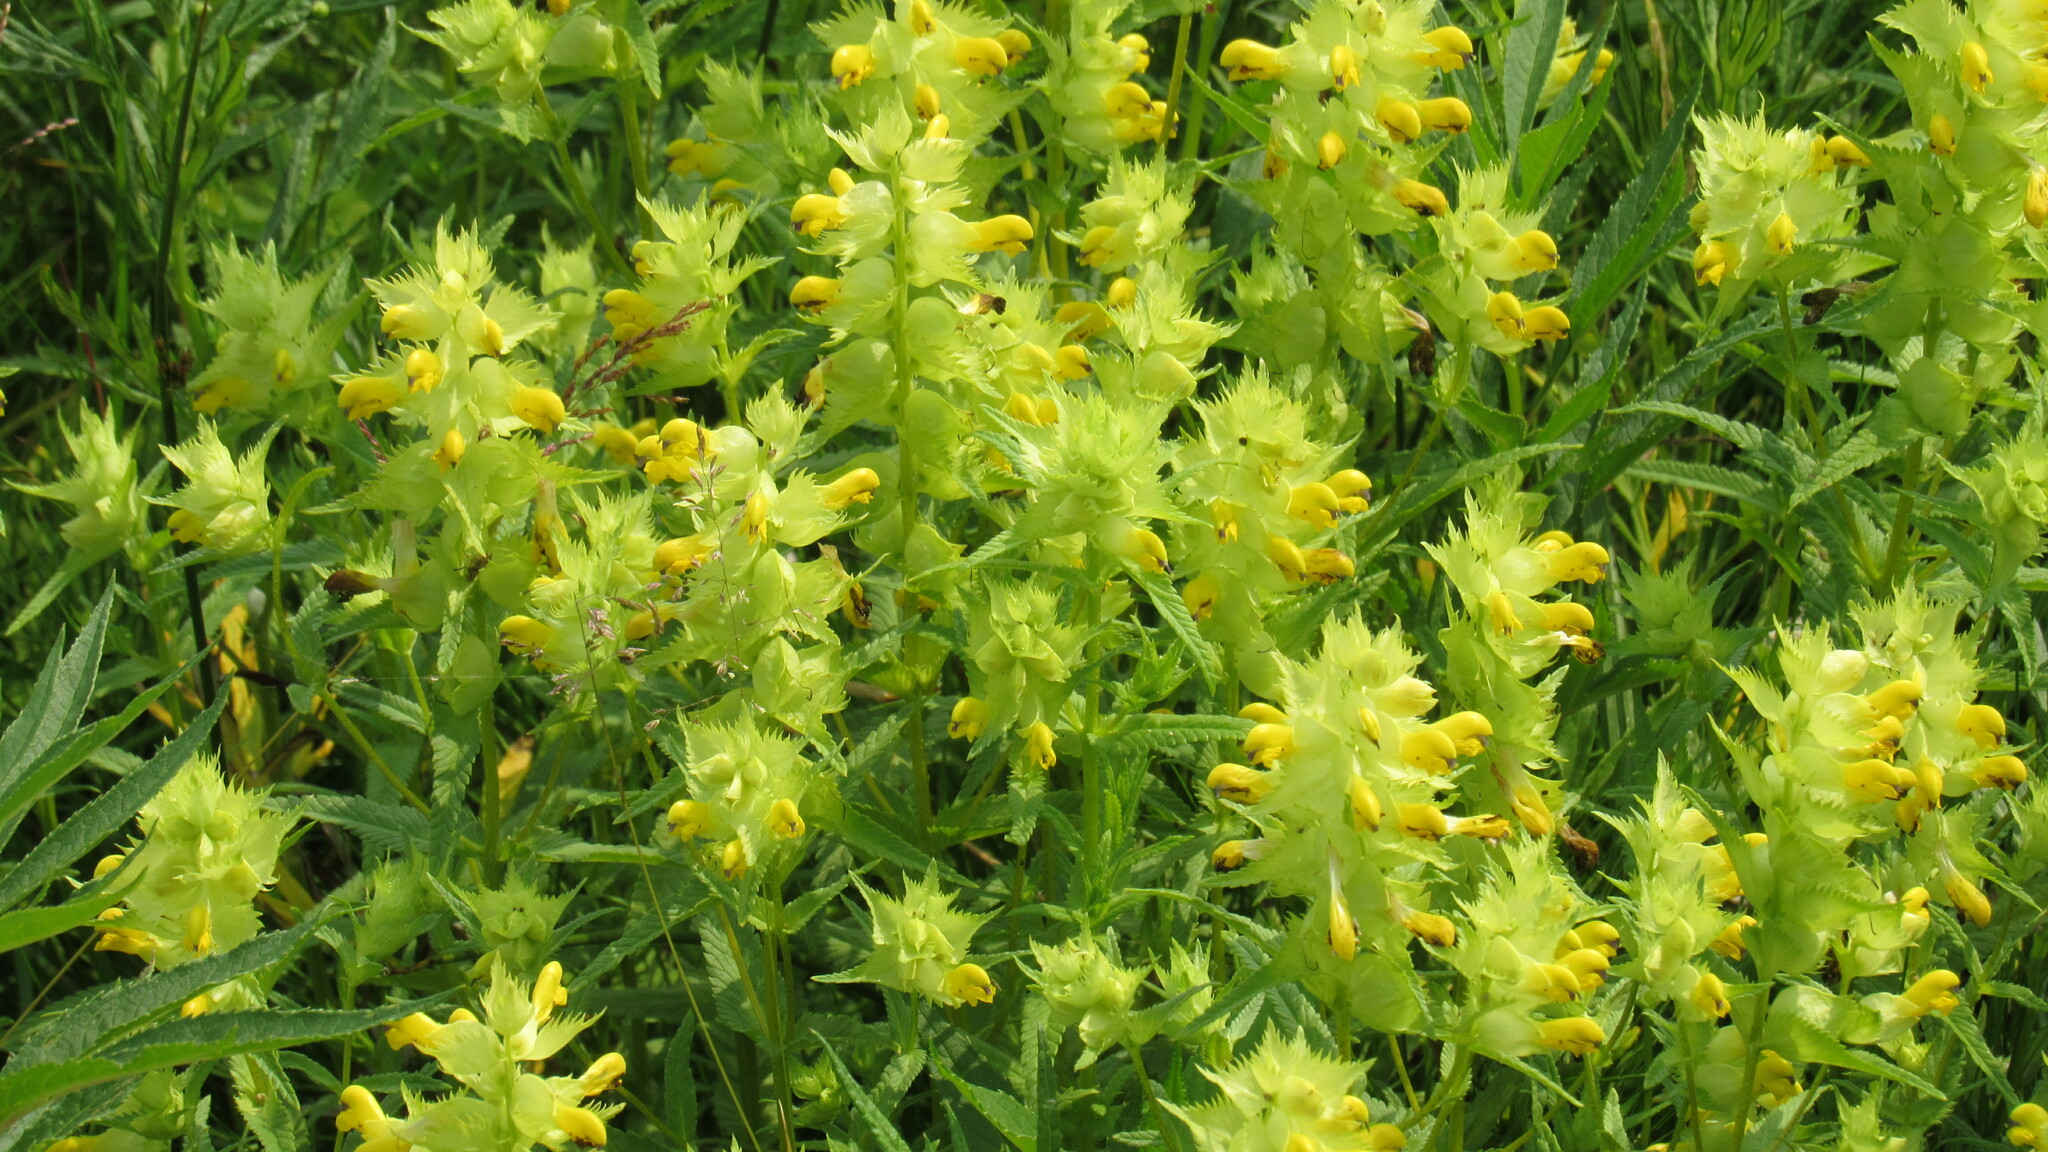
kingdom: Plantae
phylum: Tracheophyta
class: Magnoliopsida
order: Lamiales
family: Orobanchaceae
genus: Rhinanthus
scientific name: Rhinanthus serotinus
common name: Late-flowering yellow rattle
